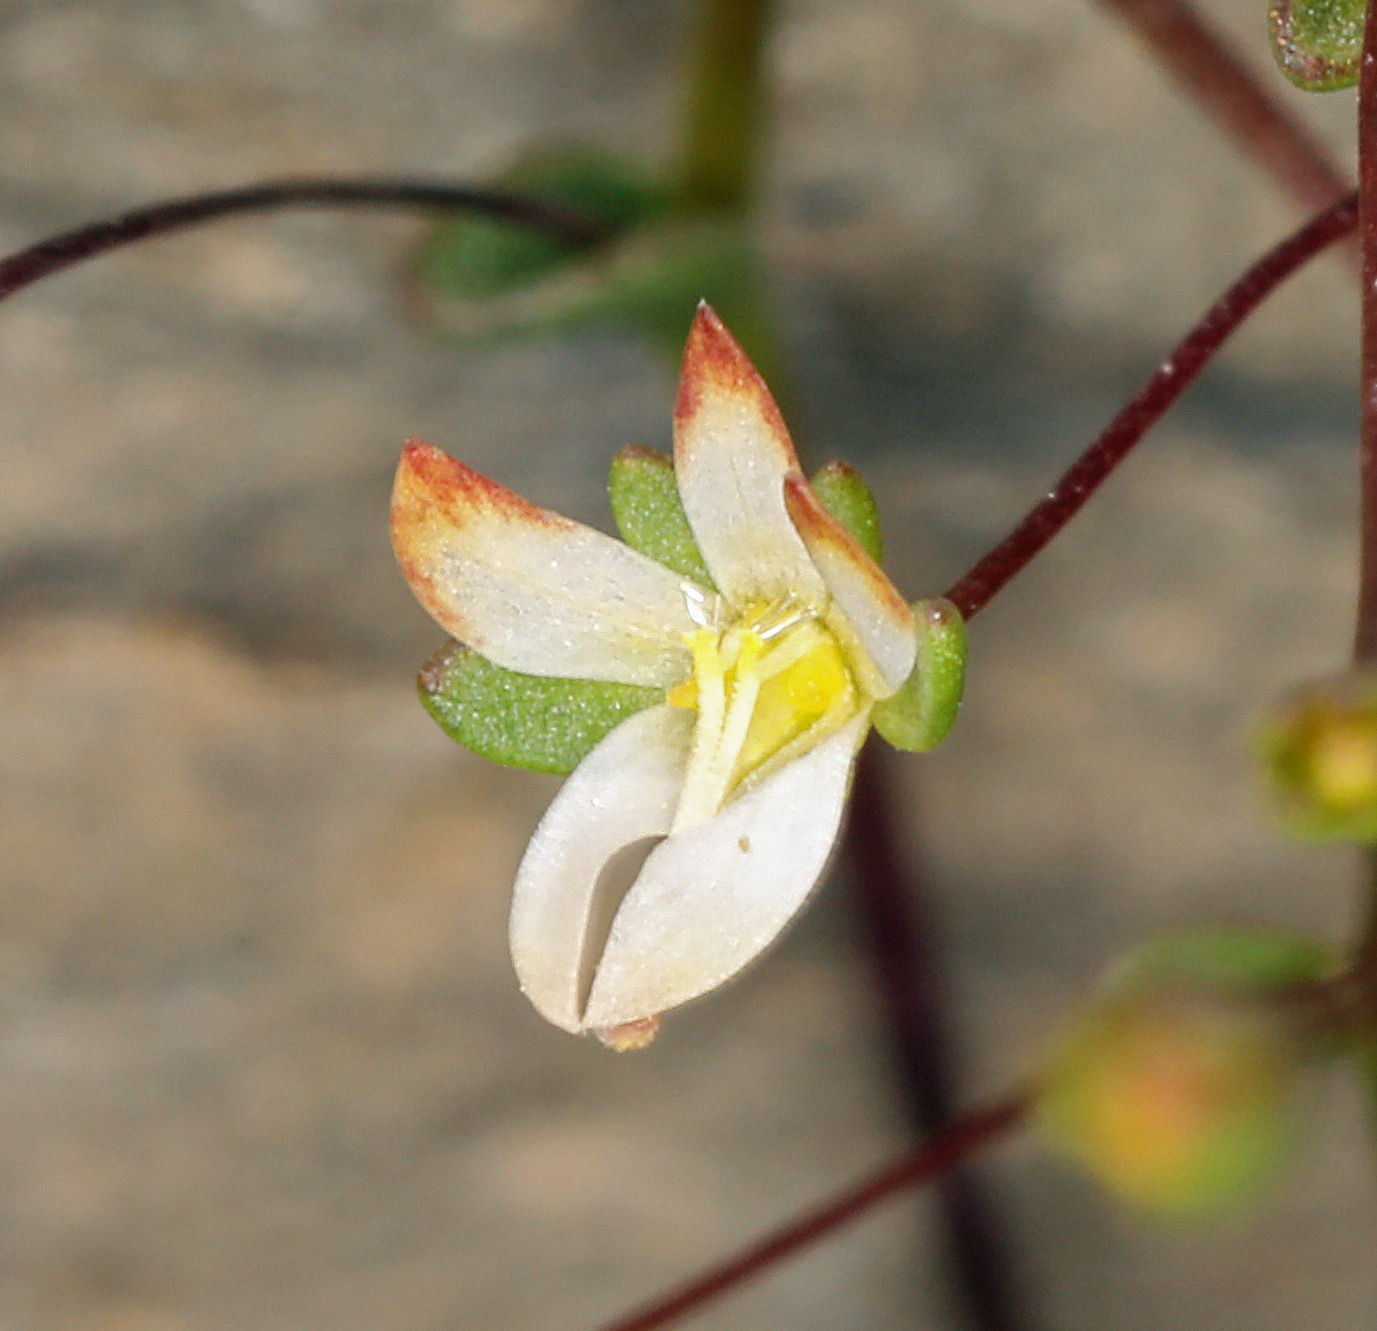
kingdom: Plantae
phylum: Tracheophyta
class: Magnoliopsida
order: Asterales
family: Campanulaceae
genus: Nemacladus
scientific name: Nemacladus morefieldii
